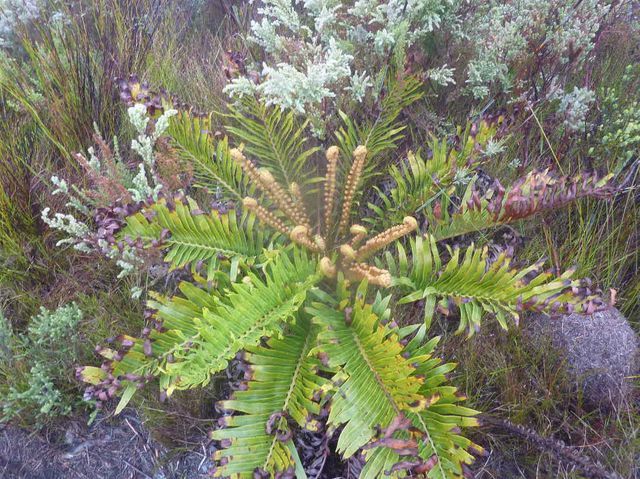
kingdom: Plantae
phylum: Tracheophyta
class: Polypodiopsida
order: Polypodiales
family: Blechnaceae
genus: Lomariocycas
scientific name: Lomariocycas tabularis
